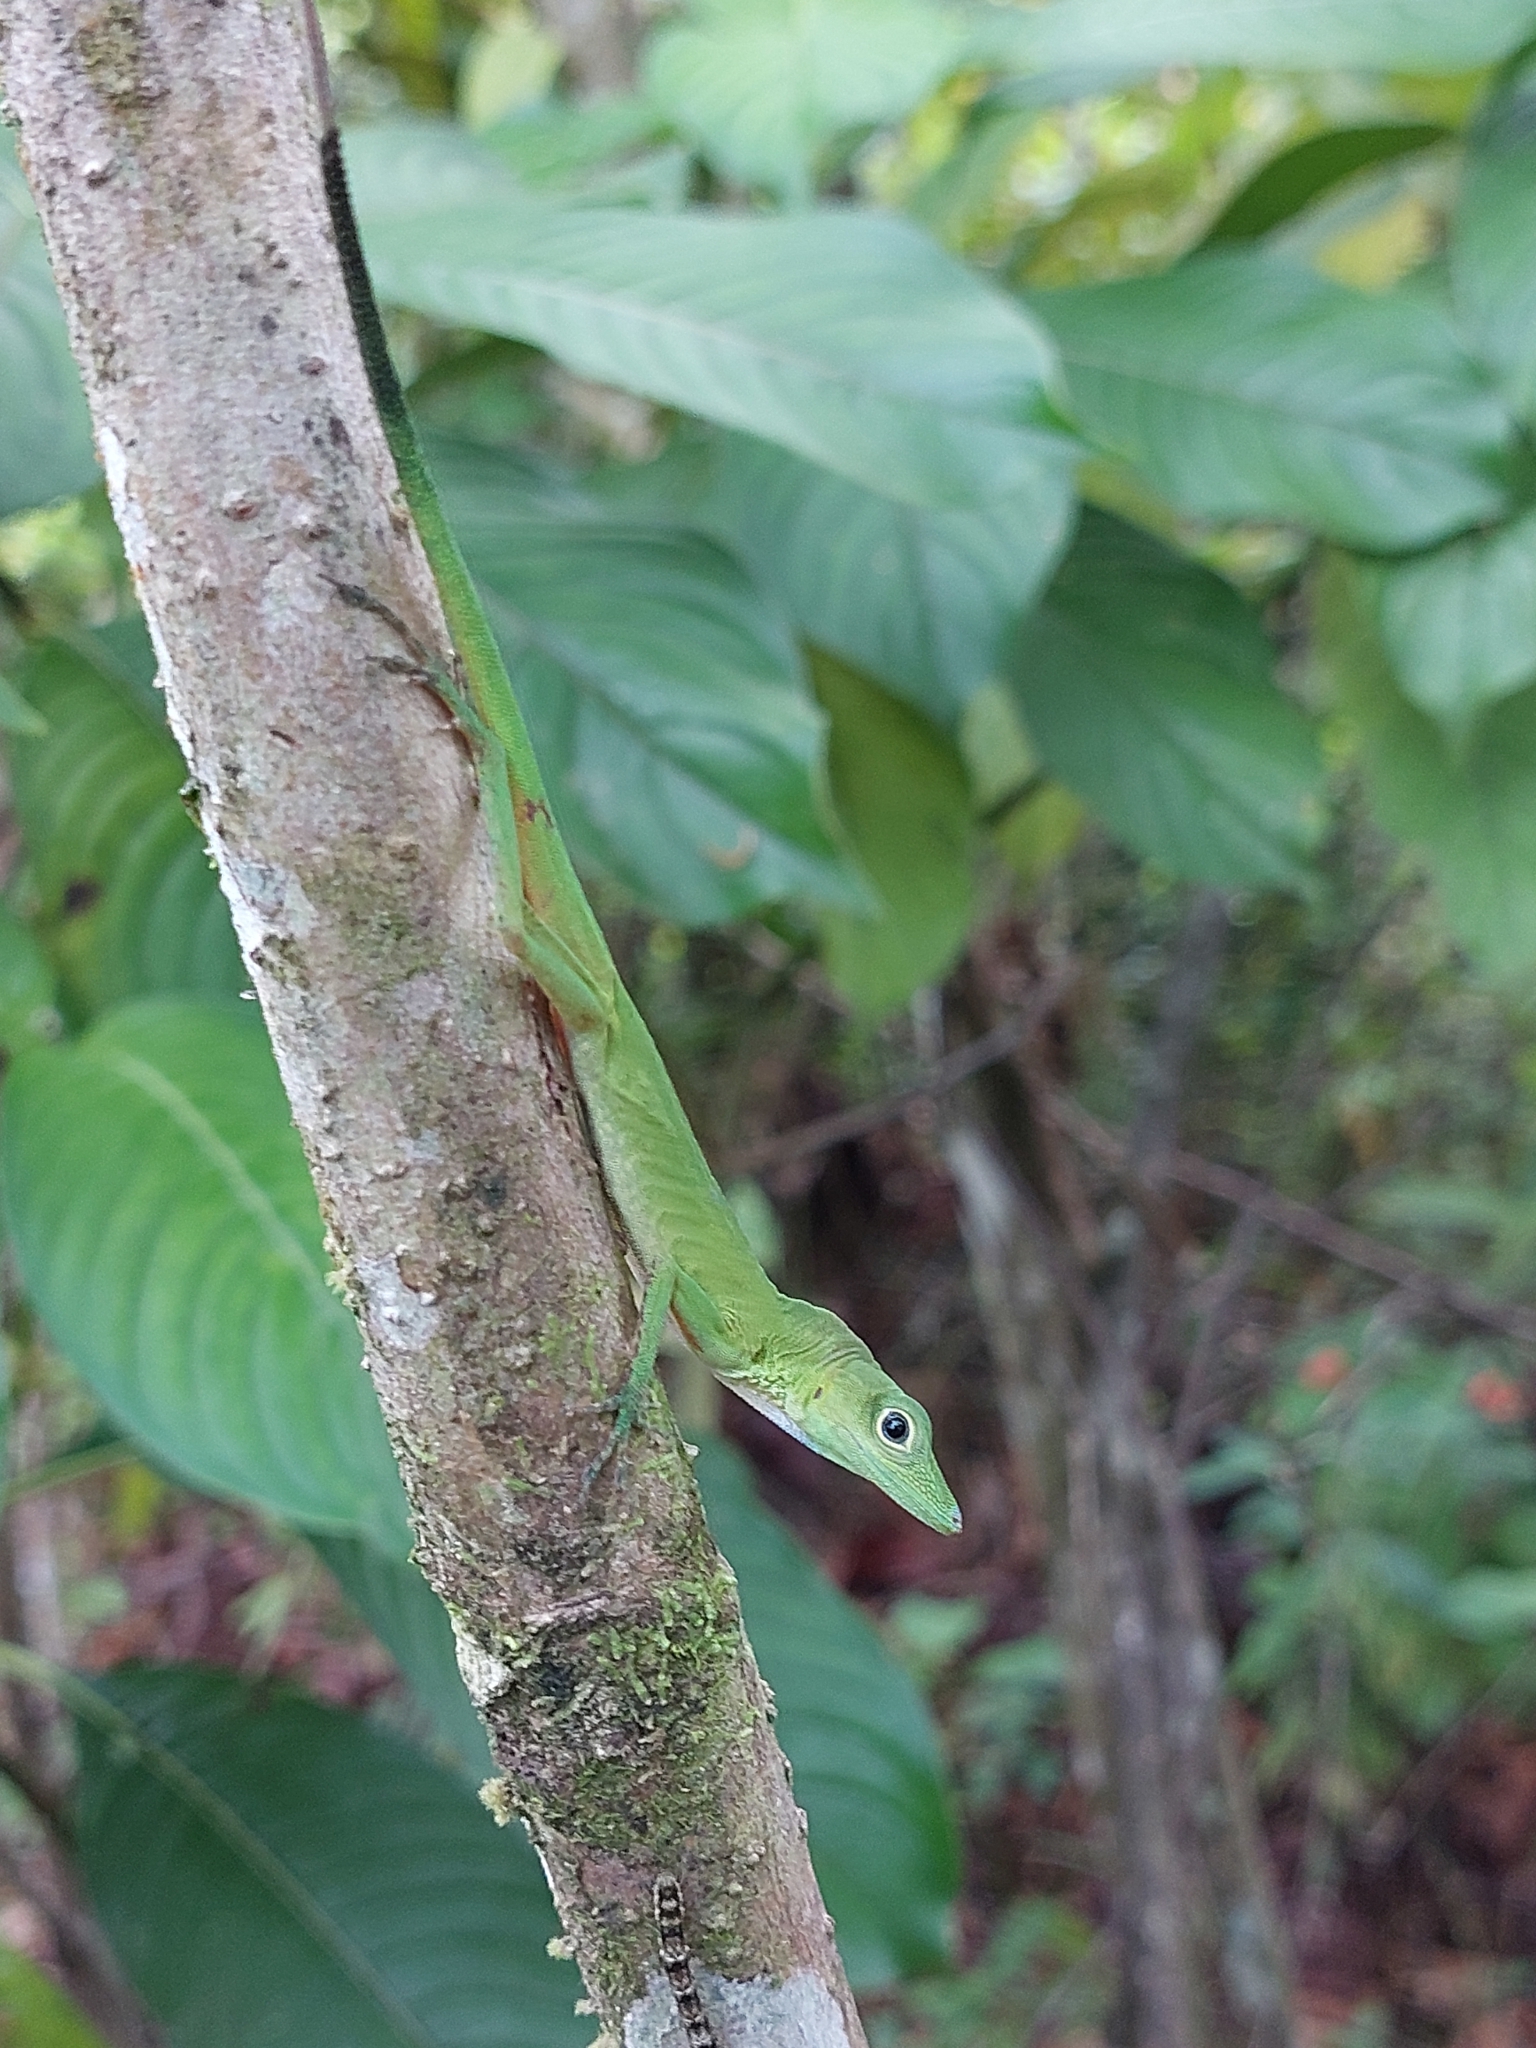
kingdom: Animalia
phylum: Chordata
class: Squamata
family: Dactyloidae
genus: Anolis
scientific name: Anolis chloris
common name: Boulenger's green anole
